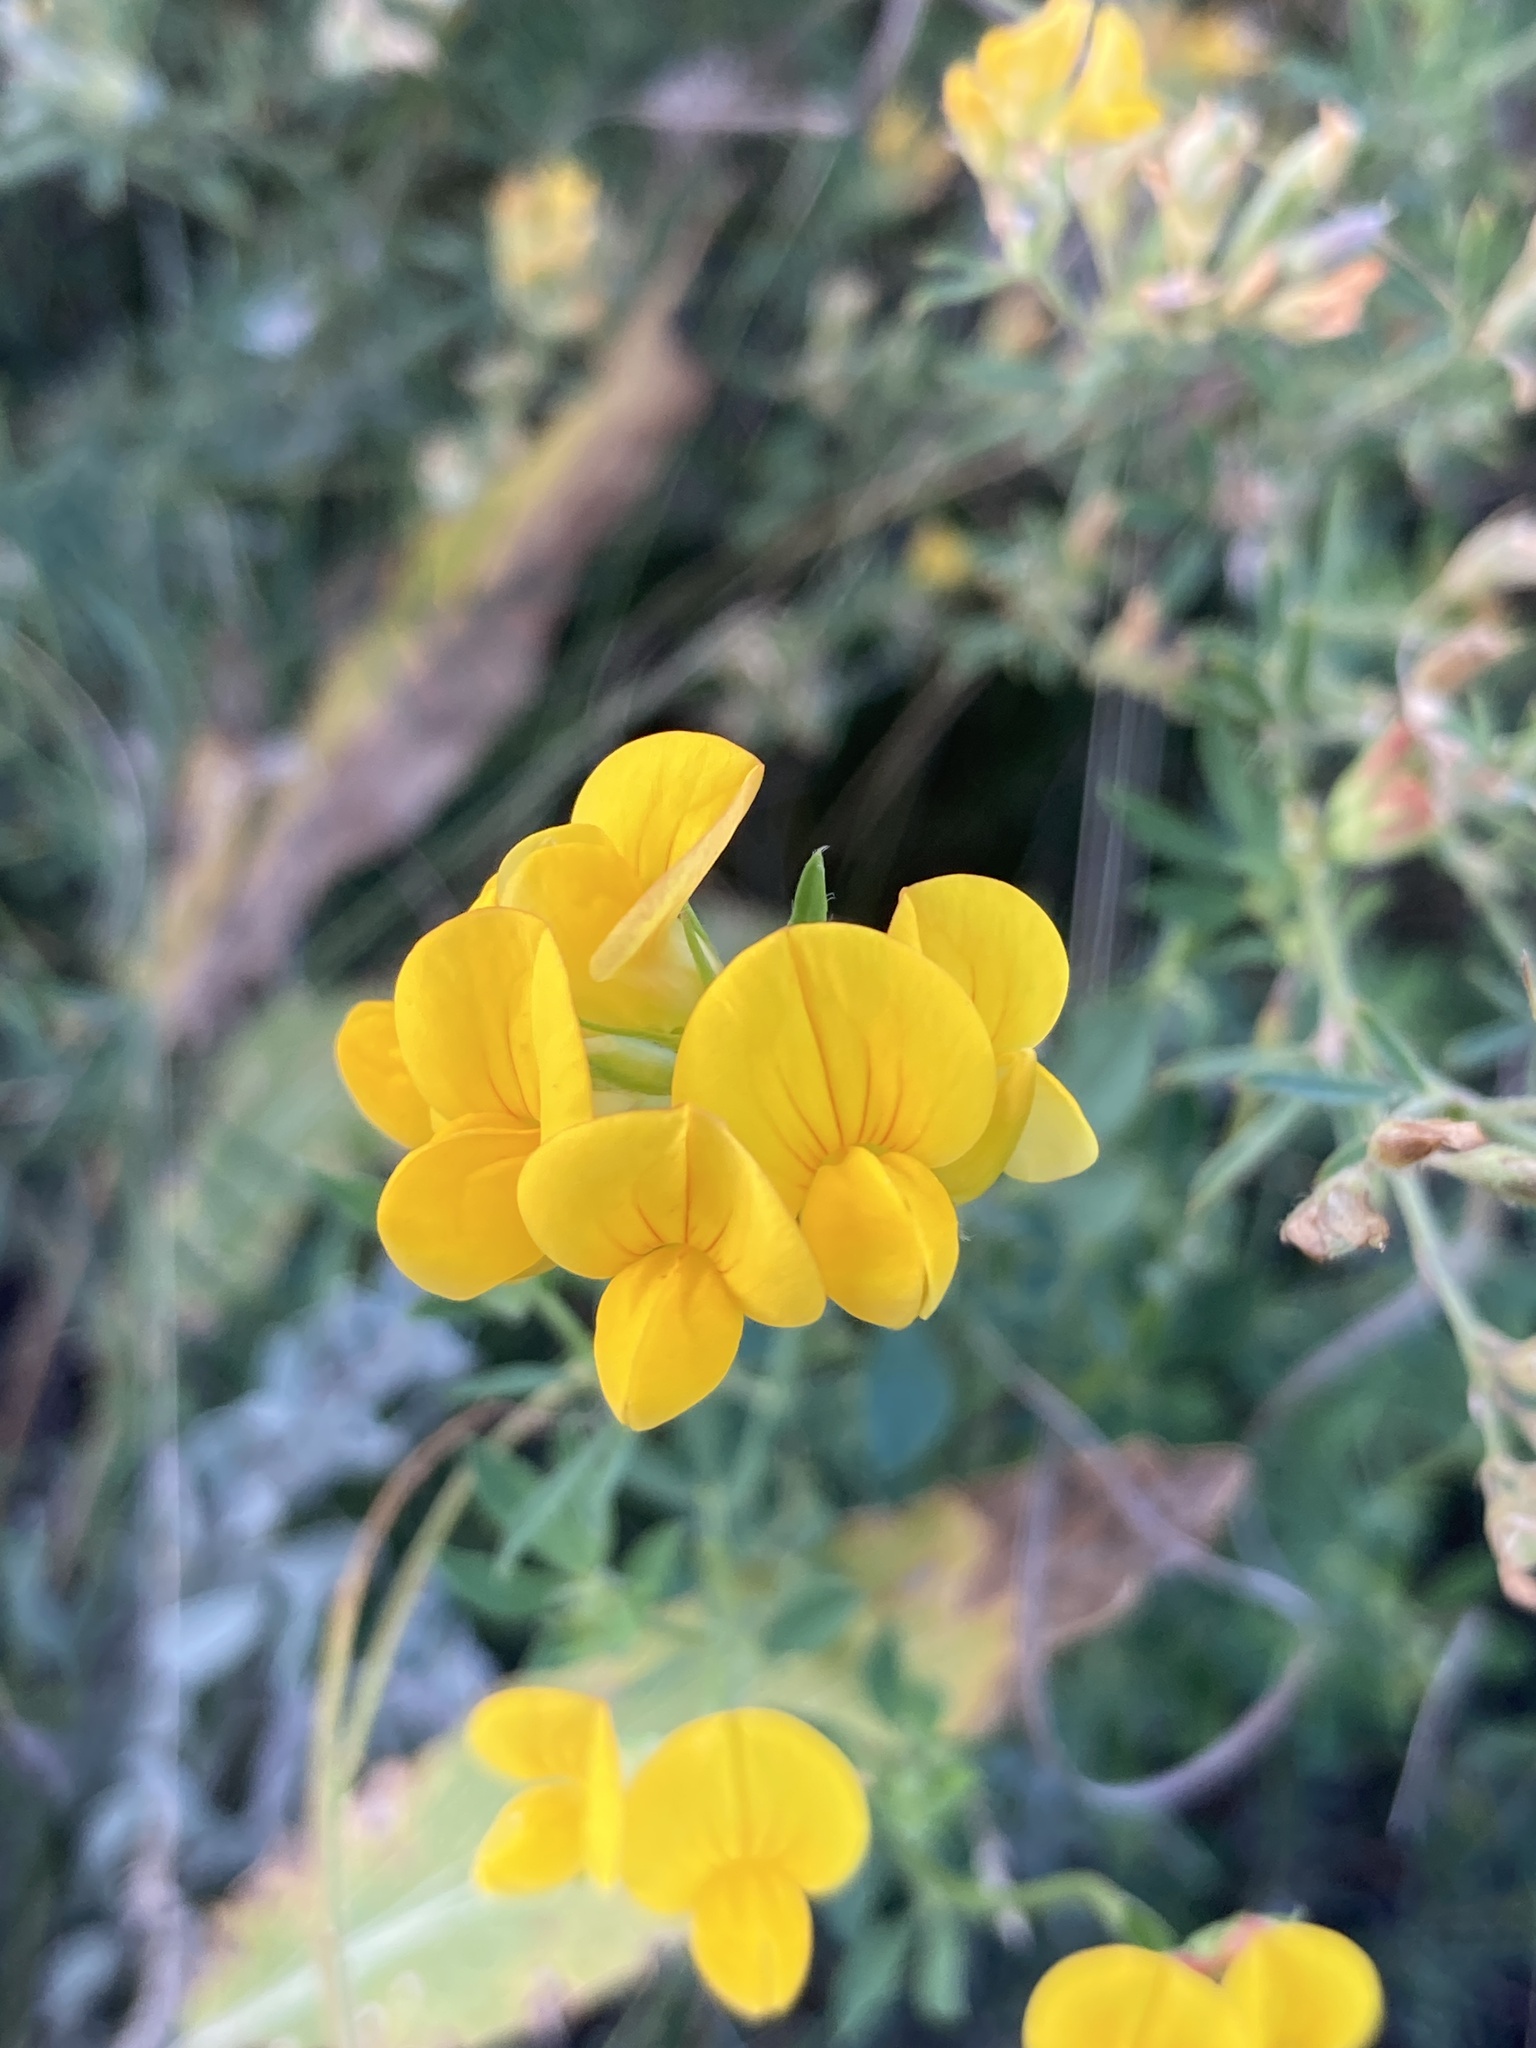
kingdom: Plantae
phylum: Tracheophyta
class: Magnoliopsida
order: Fabales
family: Fabaceae
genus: Lotus
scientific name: Lotus corniculatus
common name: Common bird's-foot-trefoil
